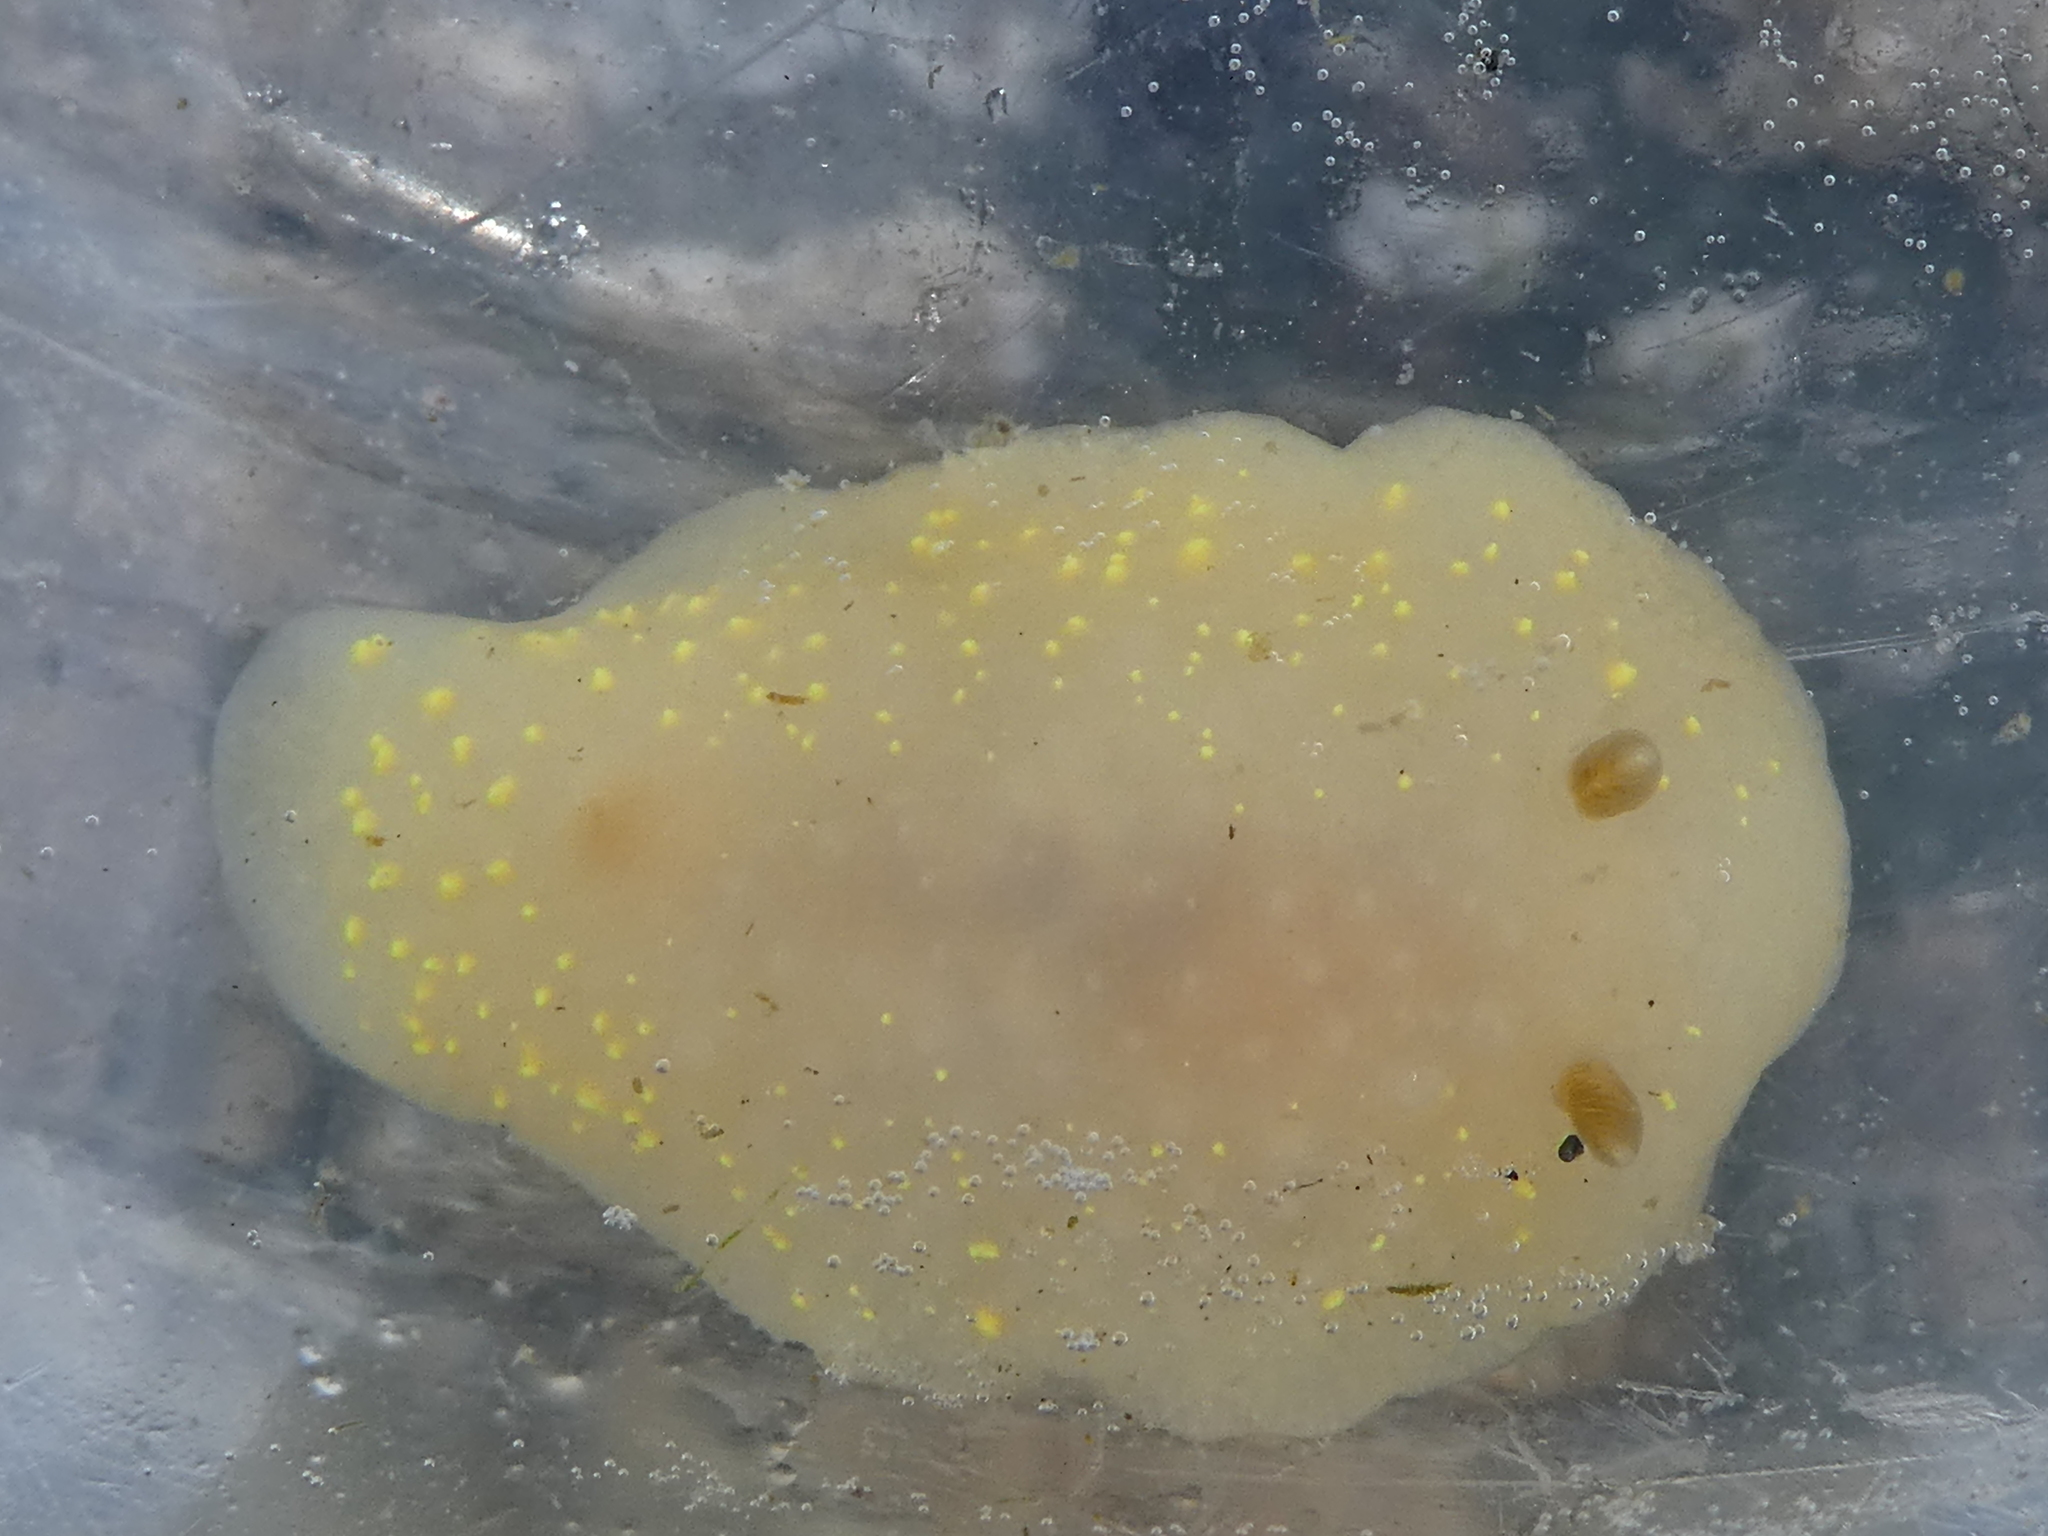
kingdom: Animalia
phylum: Mollusca
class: Gastropoda
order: Nudibranchia
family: Cadlinidae
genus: Cadlina
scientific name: Cadlina modesta
